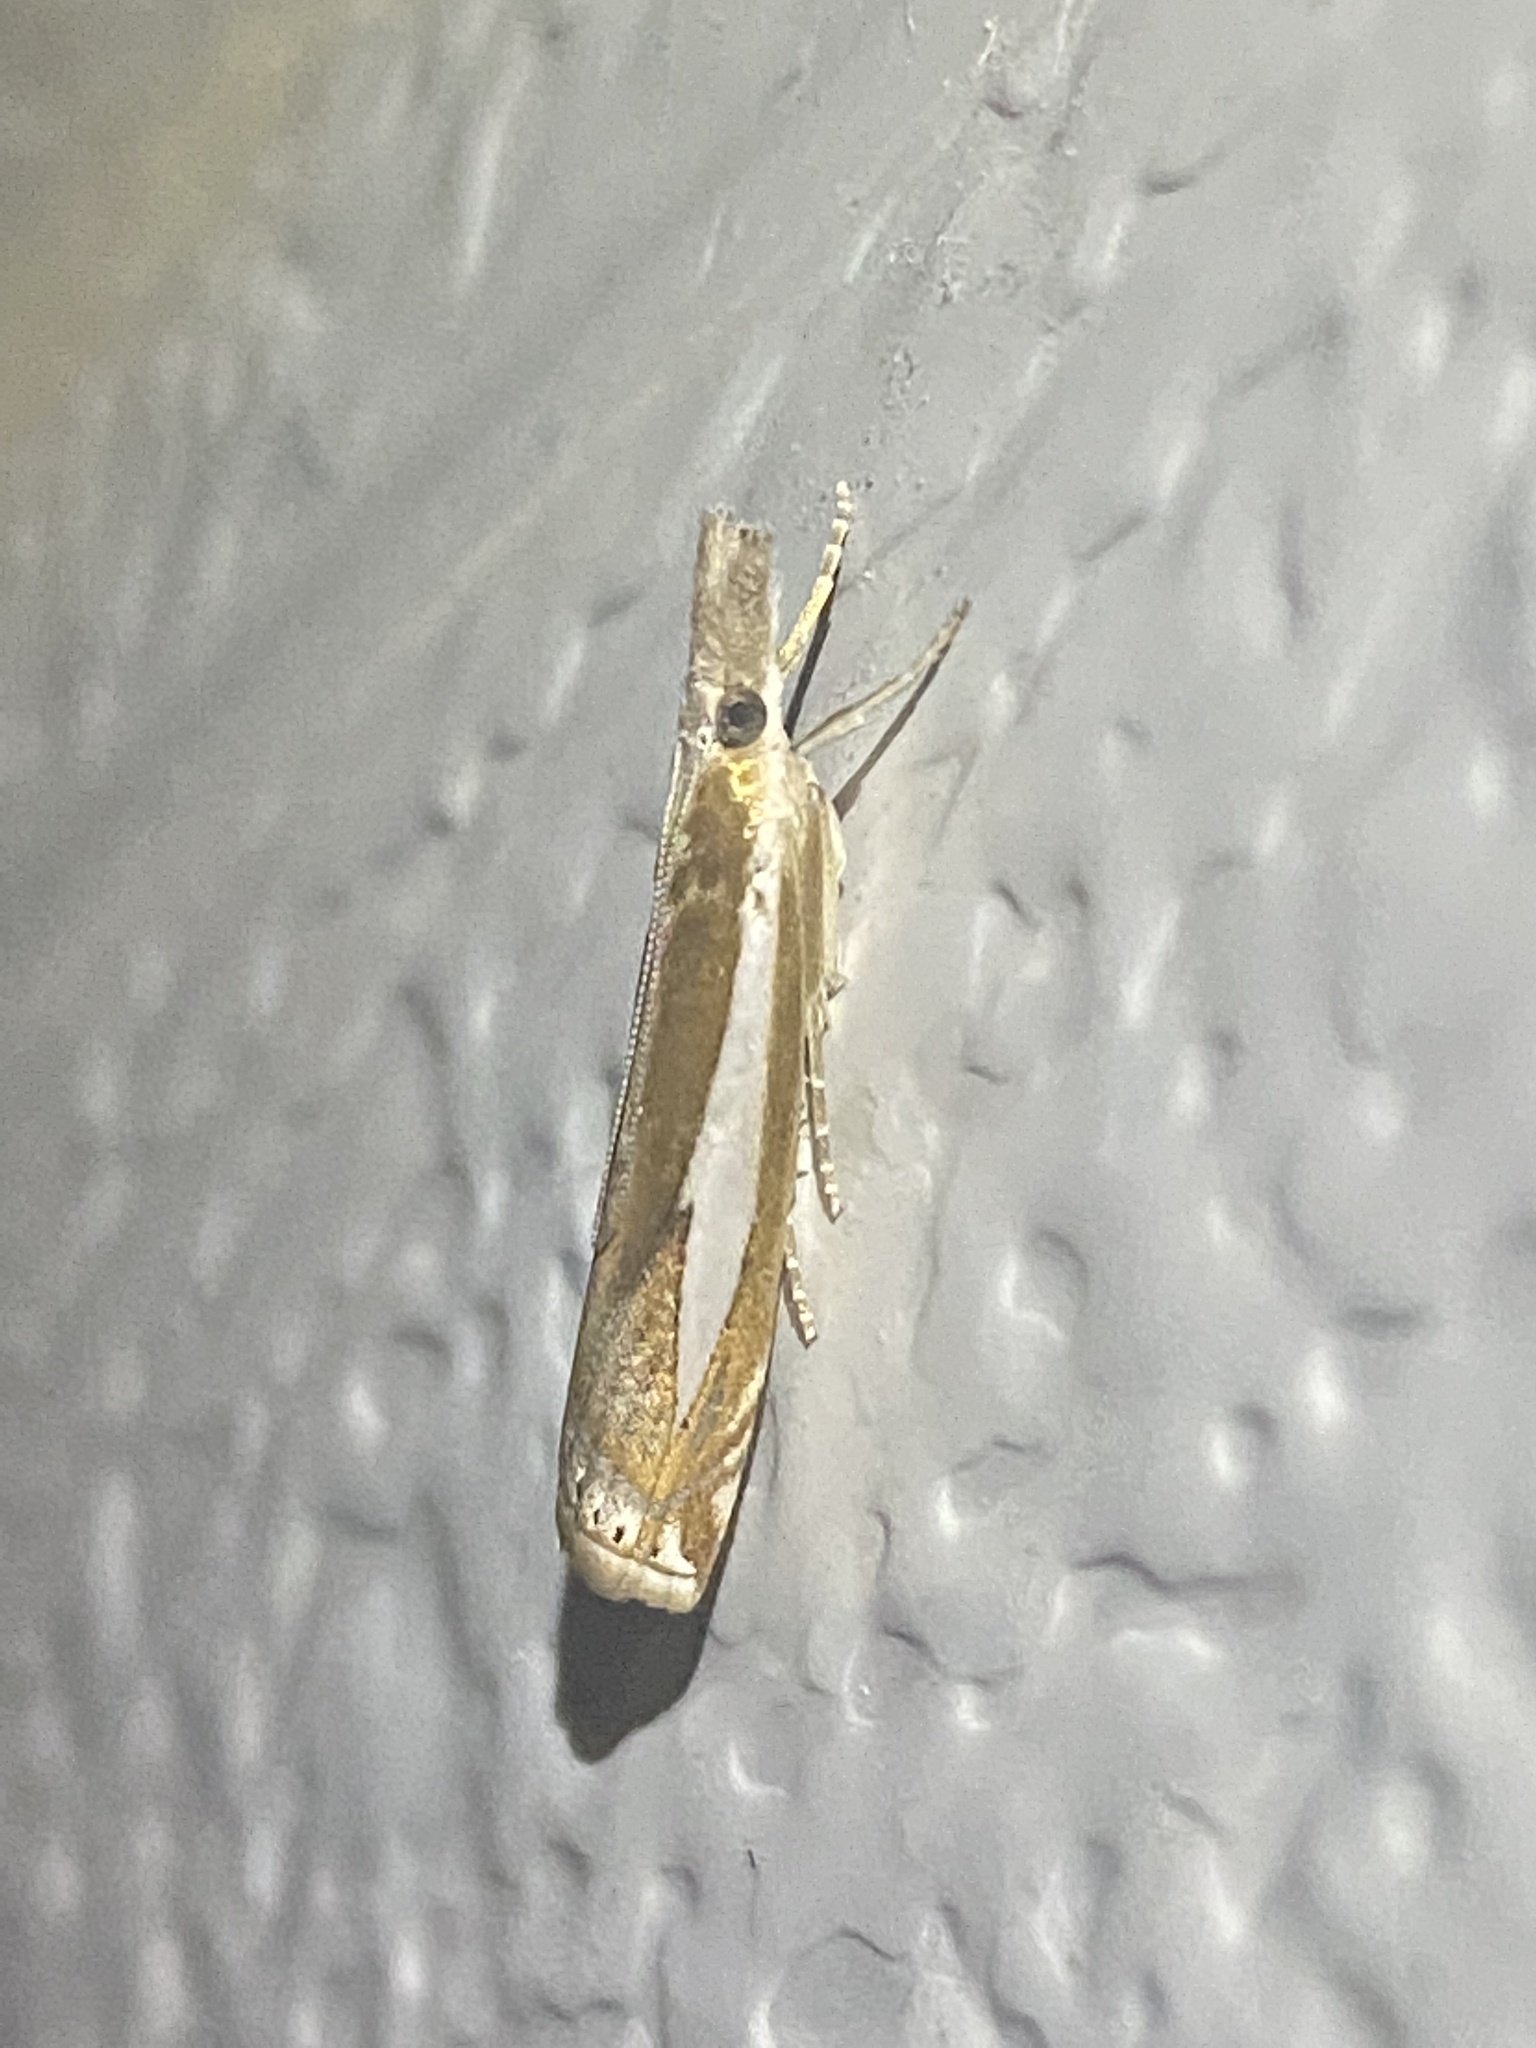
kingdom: Animalia
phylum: Arthropoda
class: Insecta
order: Lepidoptera
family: Crambidae
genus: Crambus
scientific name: Crambus praefectellus
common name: Common grass-veneer
